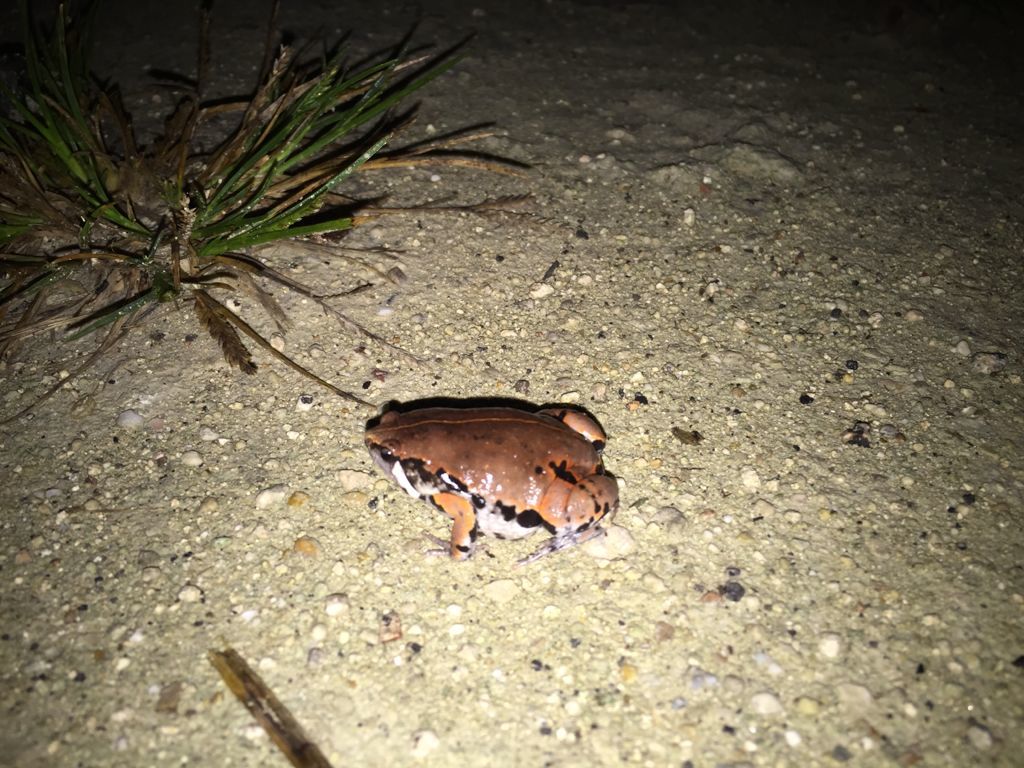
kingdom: Animalia
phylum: Chordata
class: Amphibia
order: Anura
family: Microhylidae
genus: Hypopachus
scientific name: Hypopachus variolosus
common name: Sheep frog
